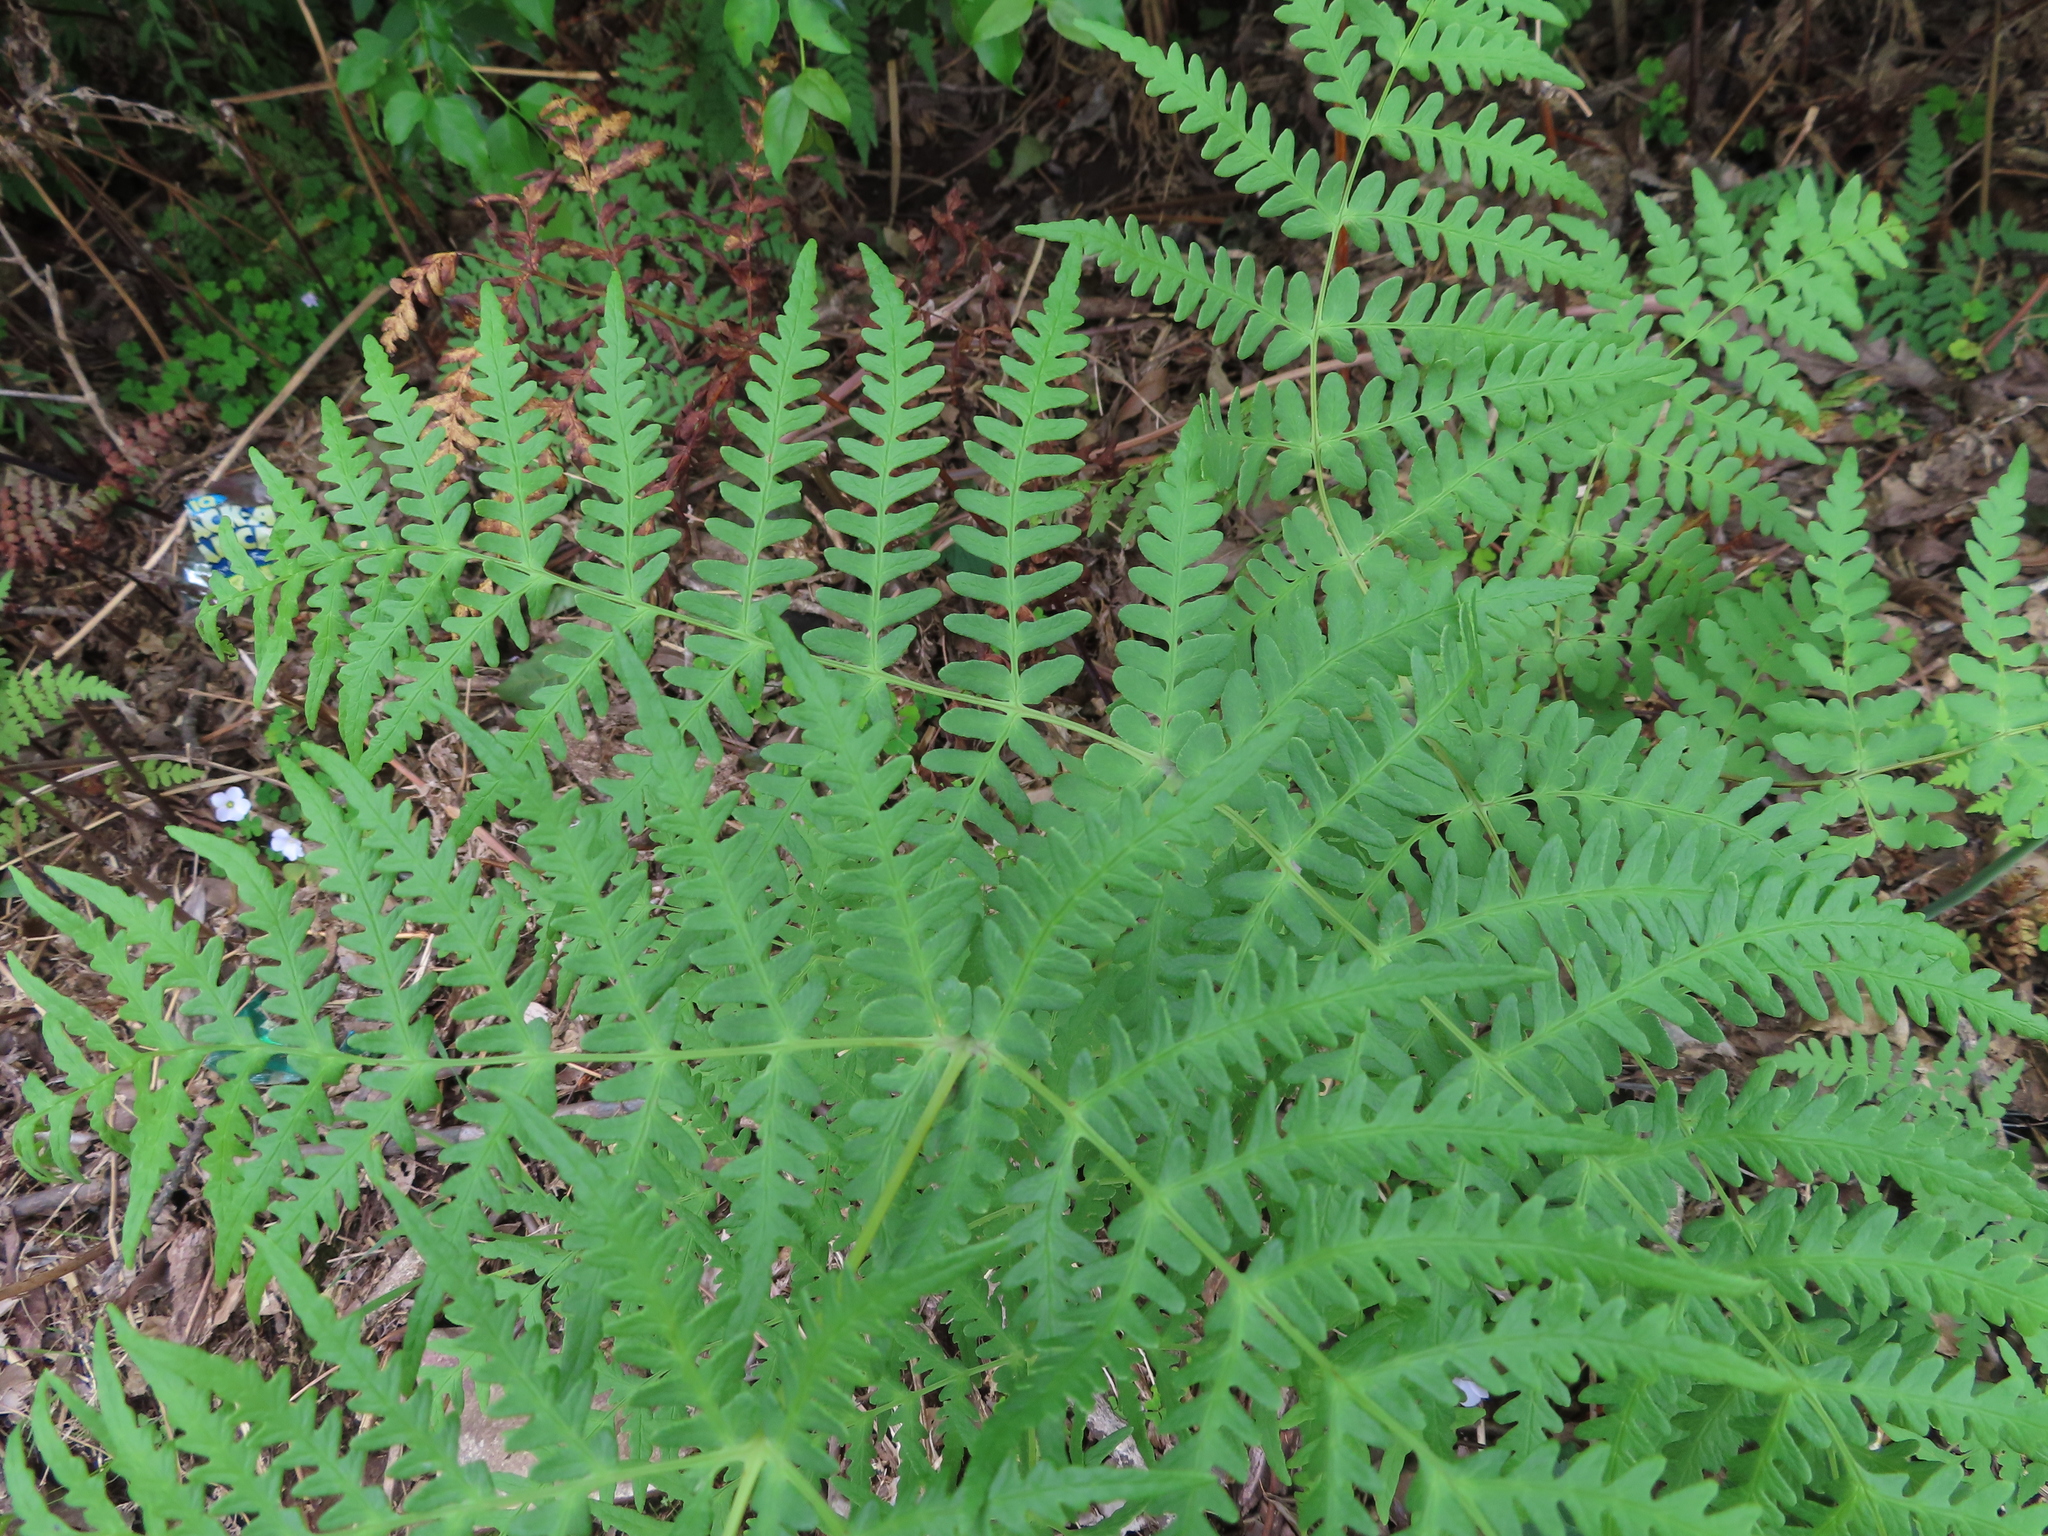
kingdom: Plantae
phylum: Tracheophyta
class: Polypodiopsida
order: Polypodiales
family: Dennstaedtiaceae
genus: Histiopteris
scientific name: Histiopteris incisa
